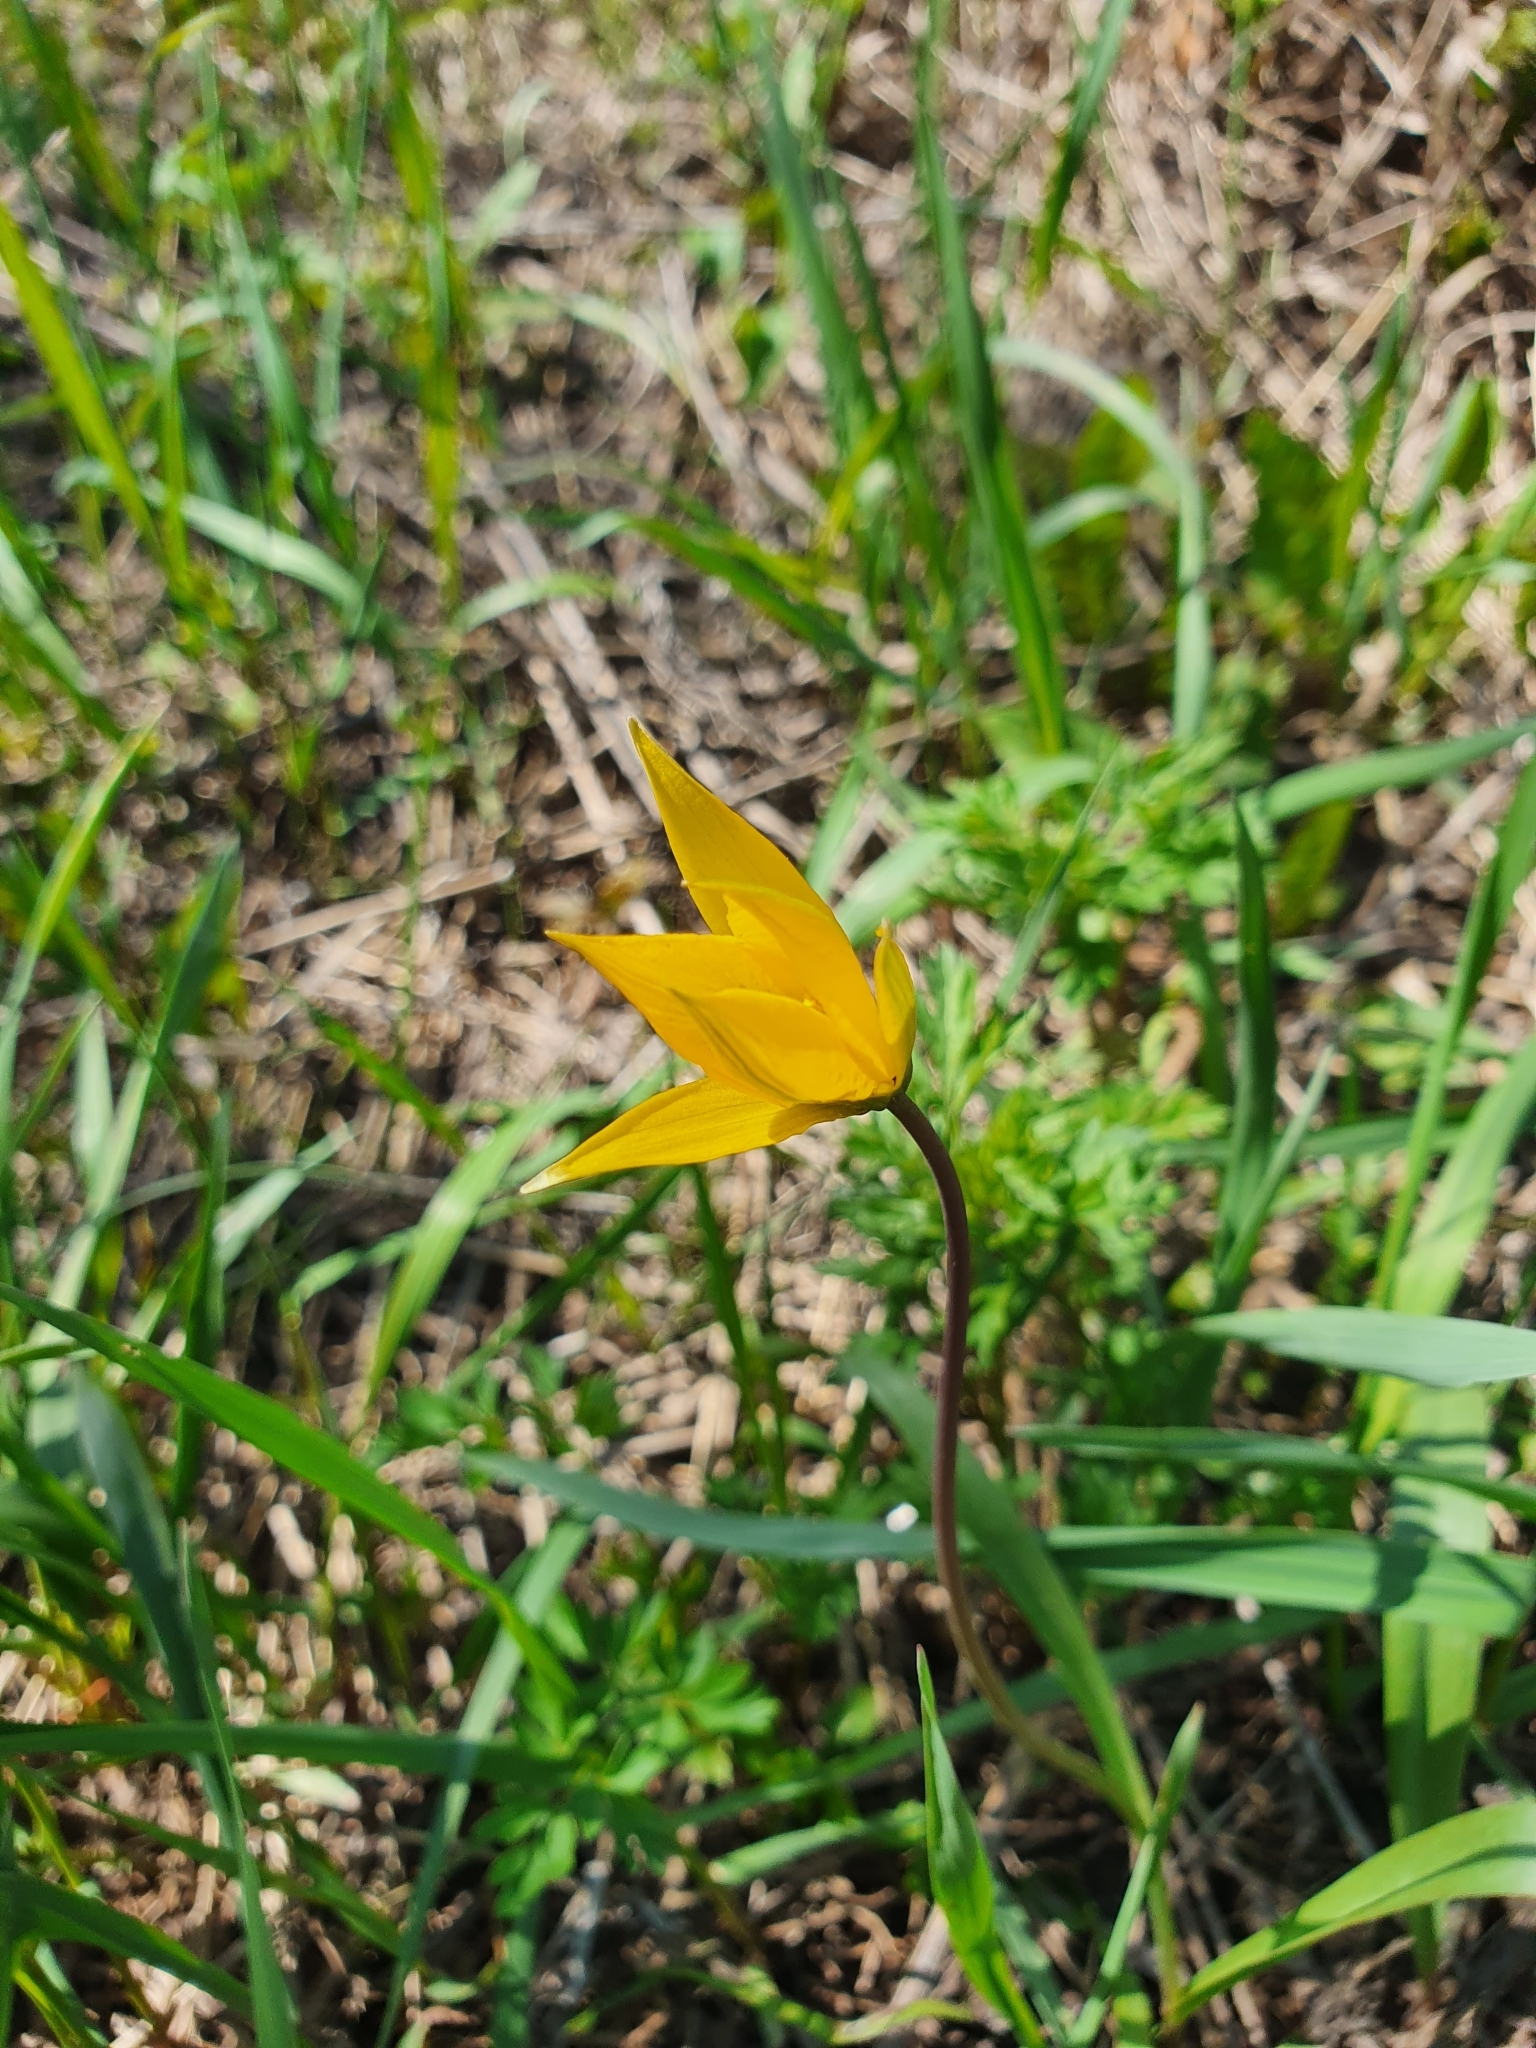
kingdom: Plantae
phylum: Tracheophyta
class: Liliopsida
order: Liliales
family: Liliaceae
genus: Tulipa
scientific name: Tulipa sylvestris
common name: Wild tulip
